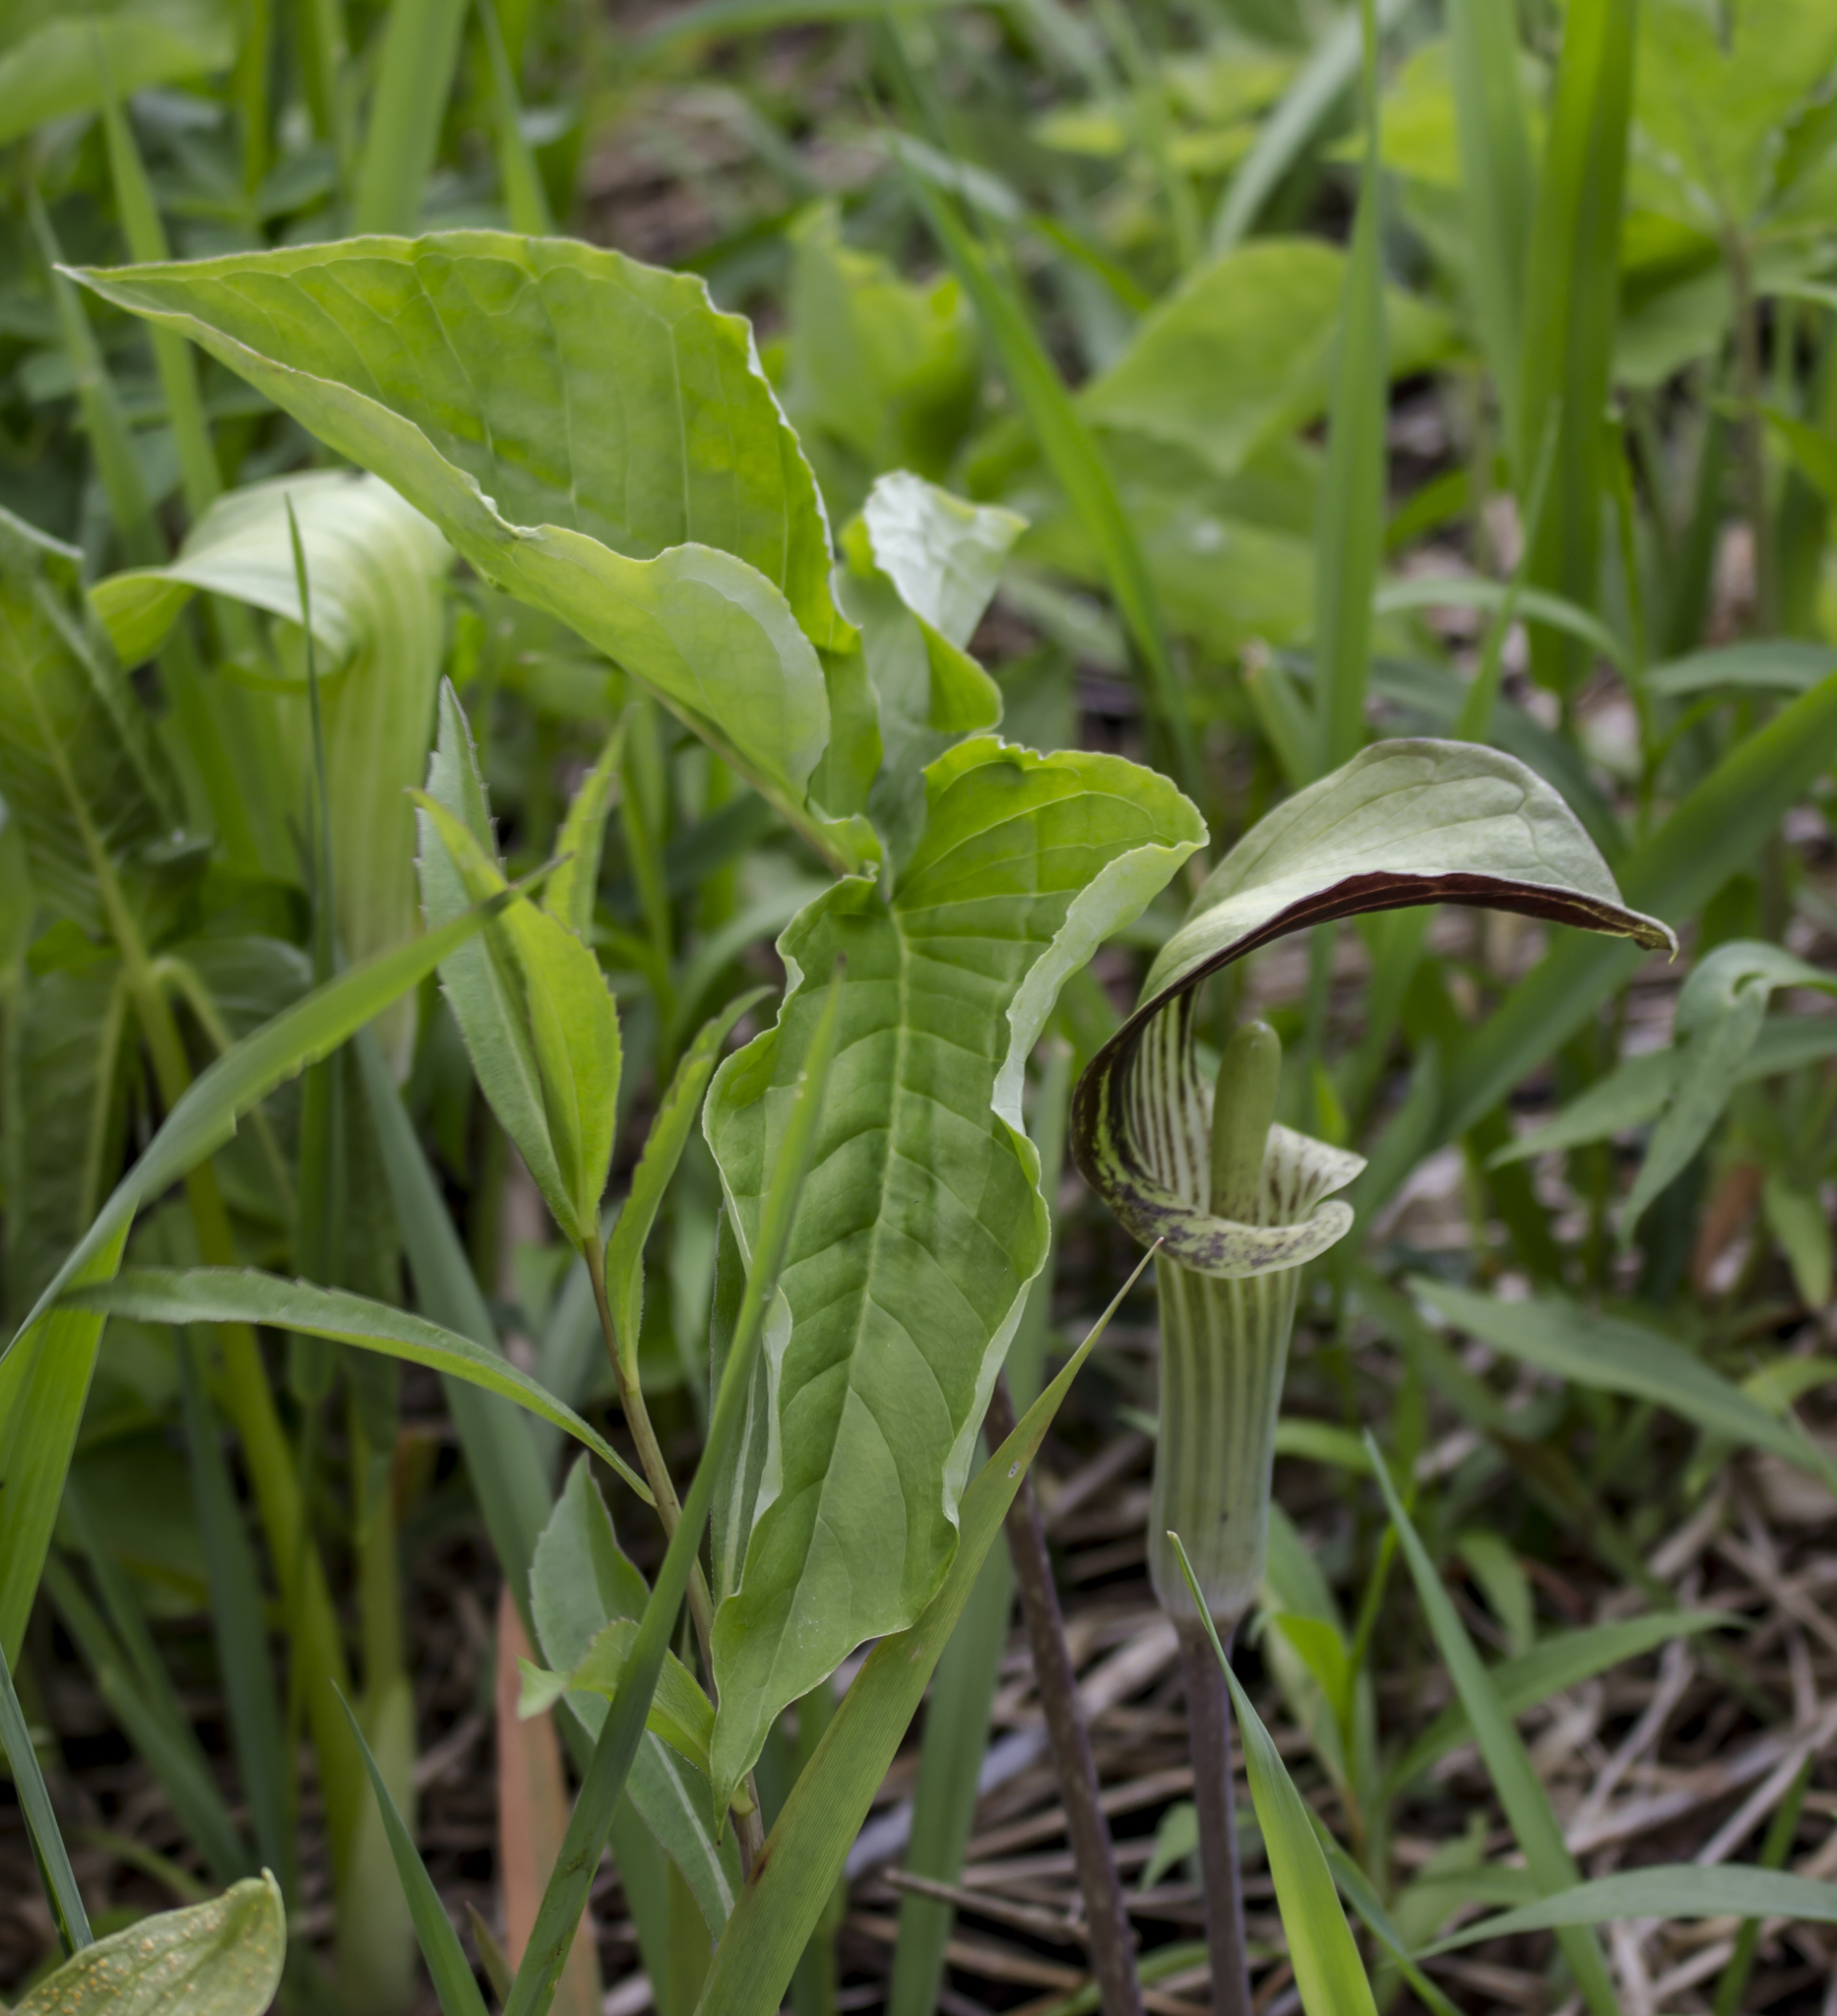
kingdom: Plantae
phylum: Tracheophyta
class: Liliopsida
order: Alismatales
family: Araceae
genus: Arisaema
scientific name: Arisaema triphyllum
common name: Jack-in-the-pulpit
